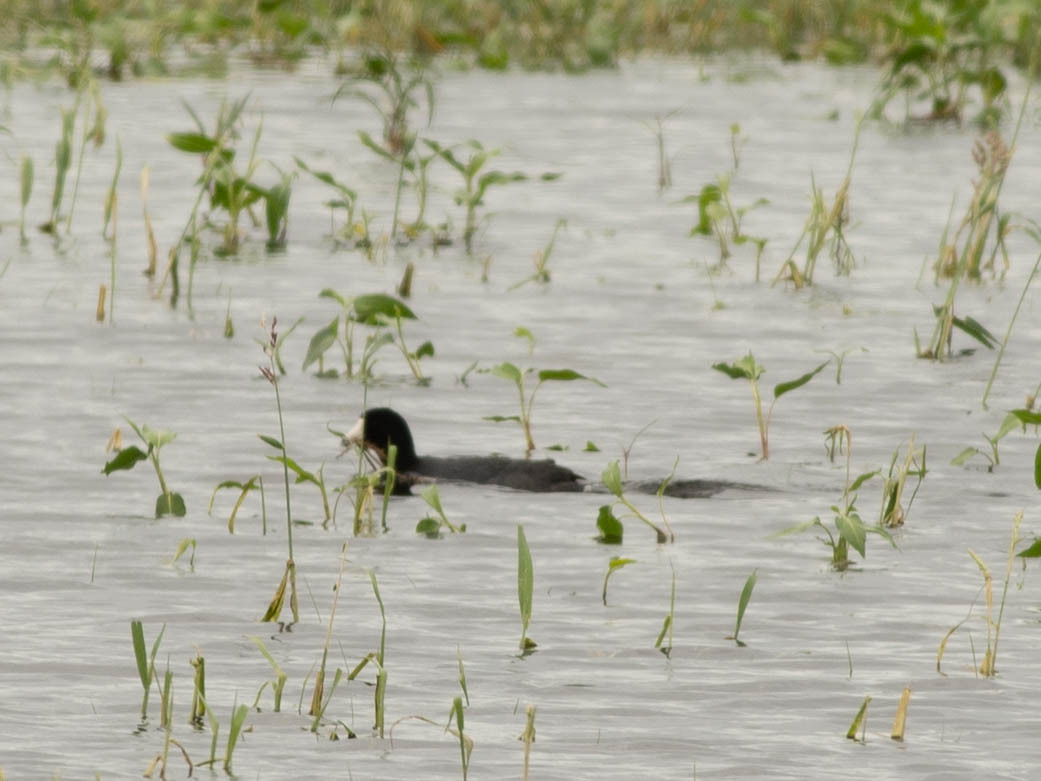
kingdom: Animalia
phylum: Chordata
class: Aves
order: Gruiformes
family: Rallidae
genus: Fulica
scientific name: Fulica americana
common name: American coot
